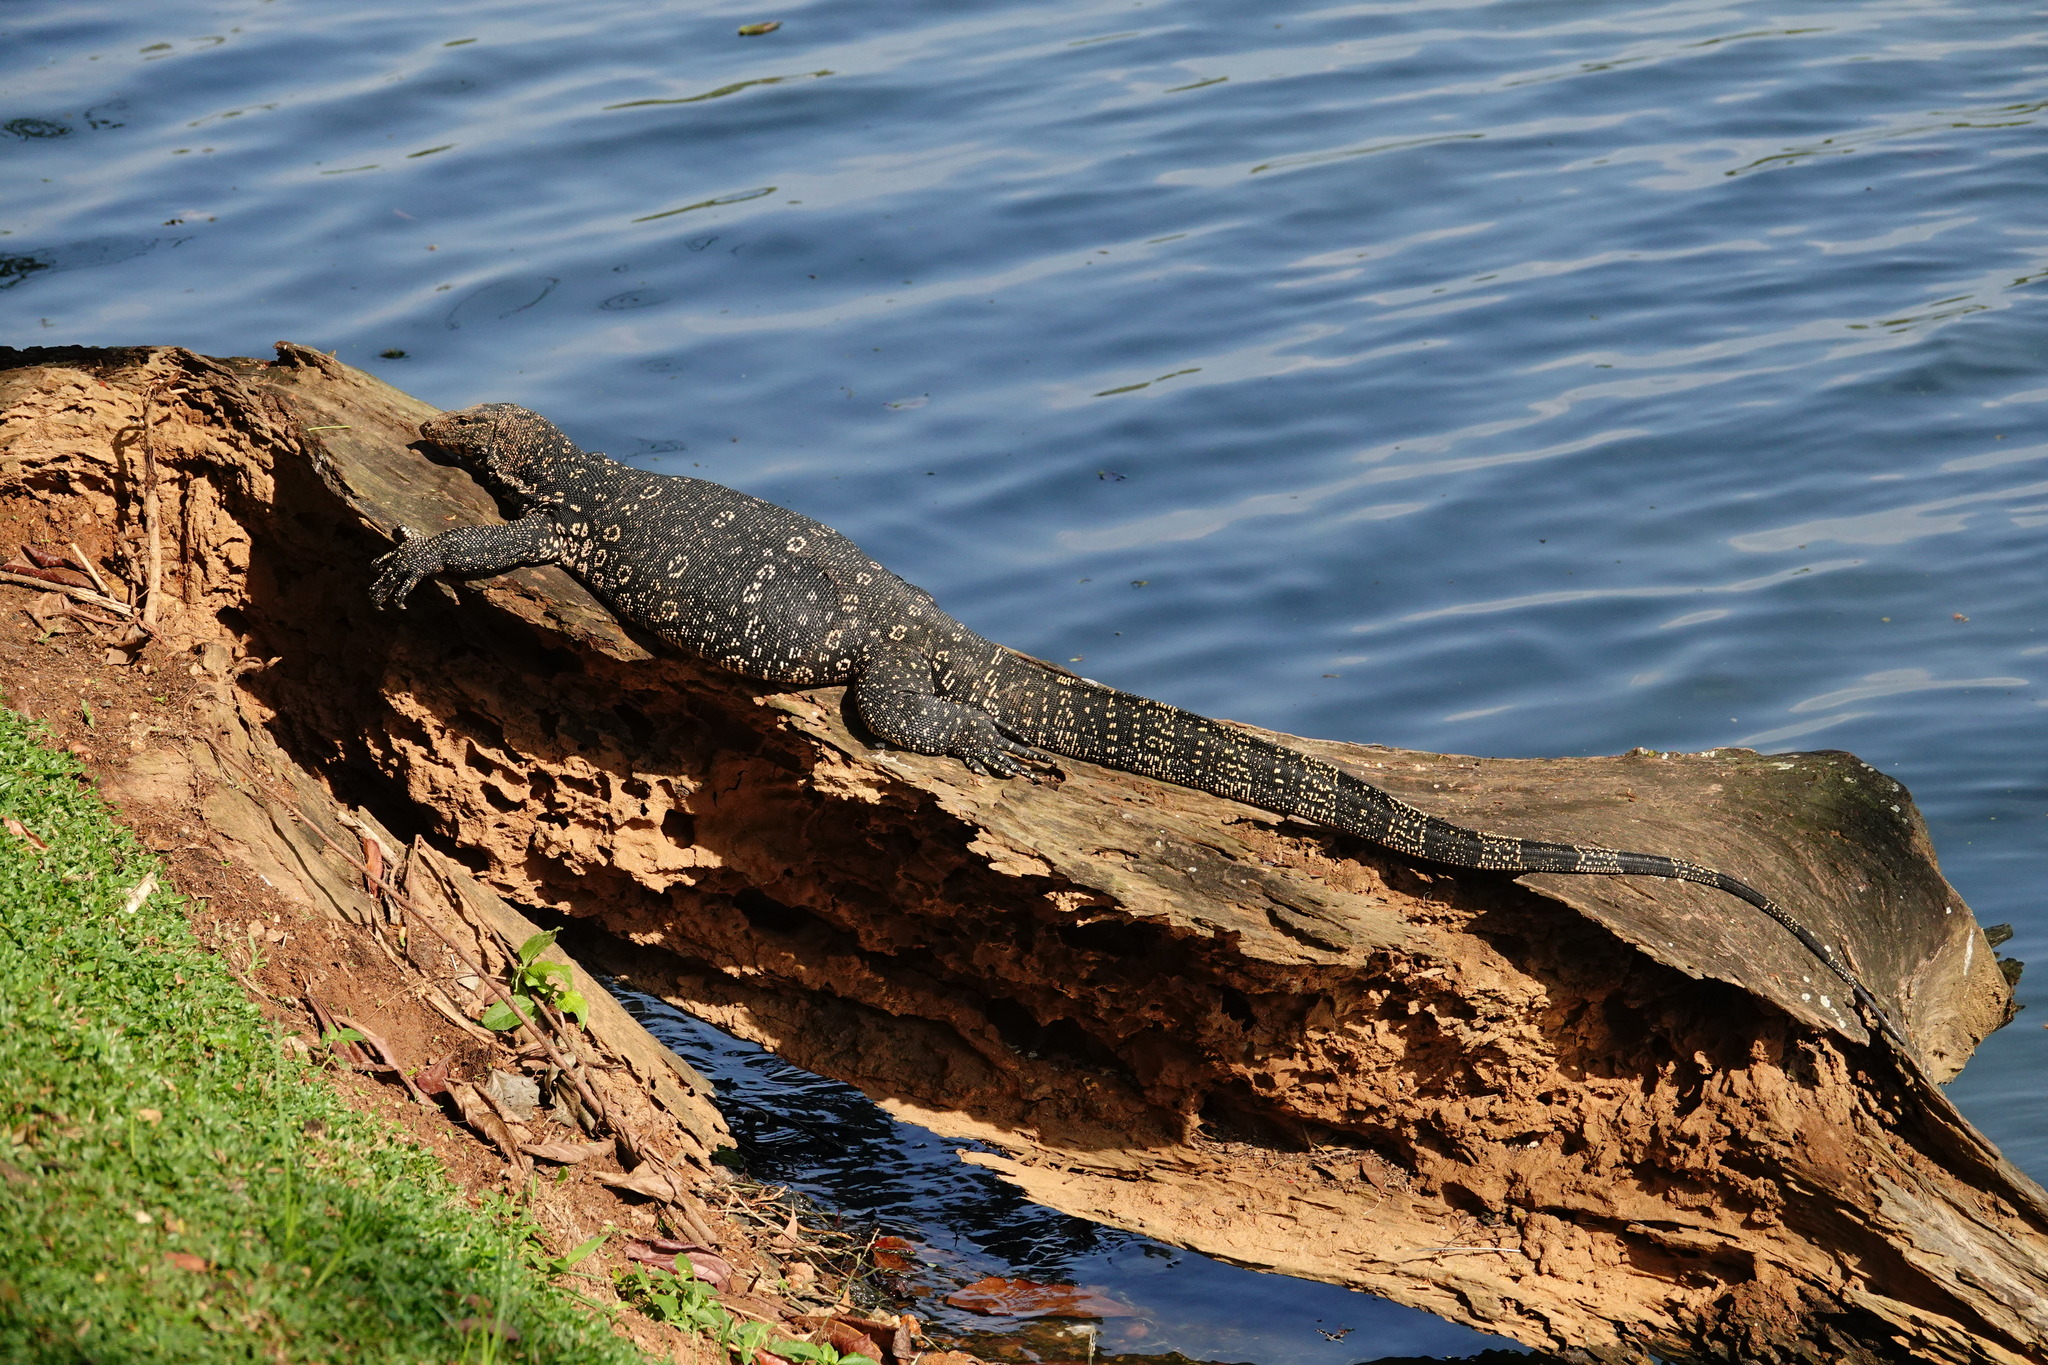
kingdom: Animalia
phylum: Chordata
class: Squamata
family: Varanidae
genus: Varanus
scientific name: Varanus salvator
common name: Common water monitor
